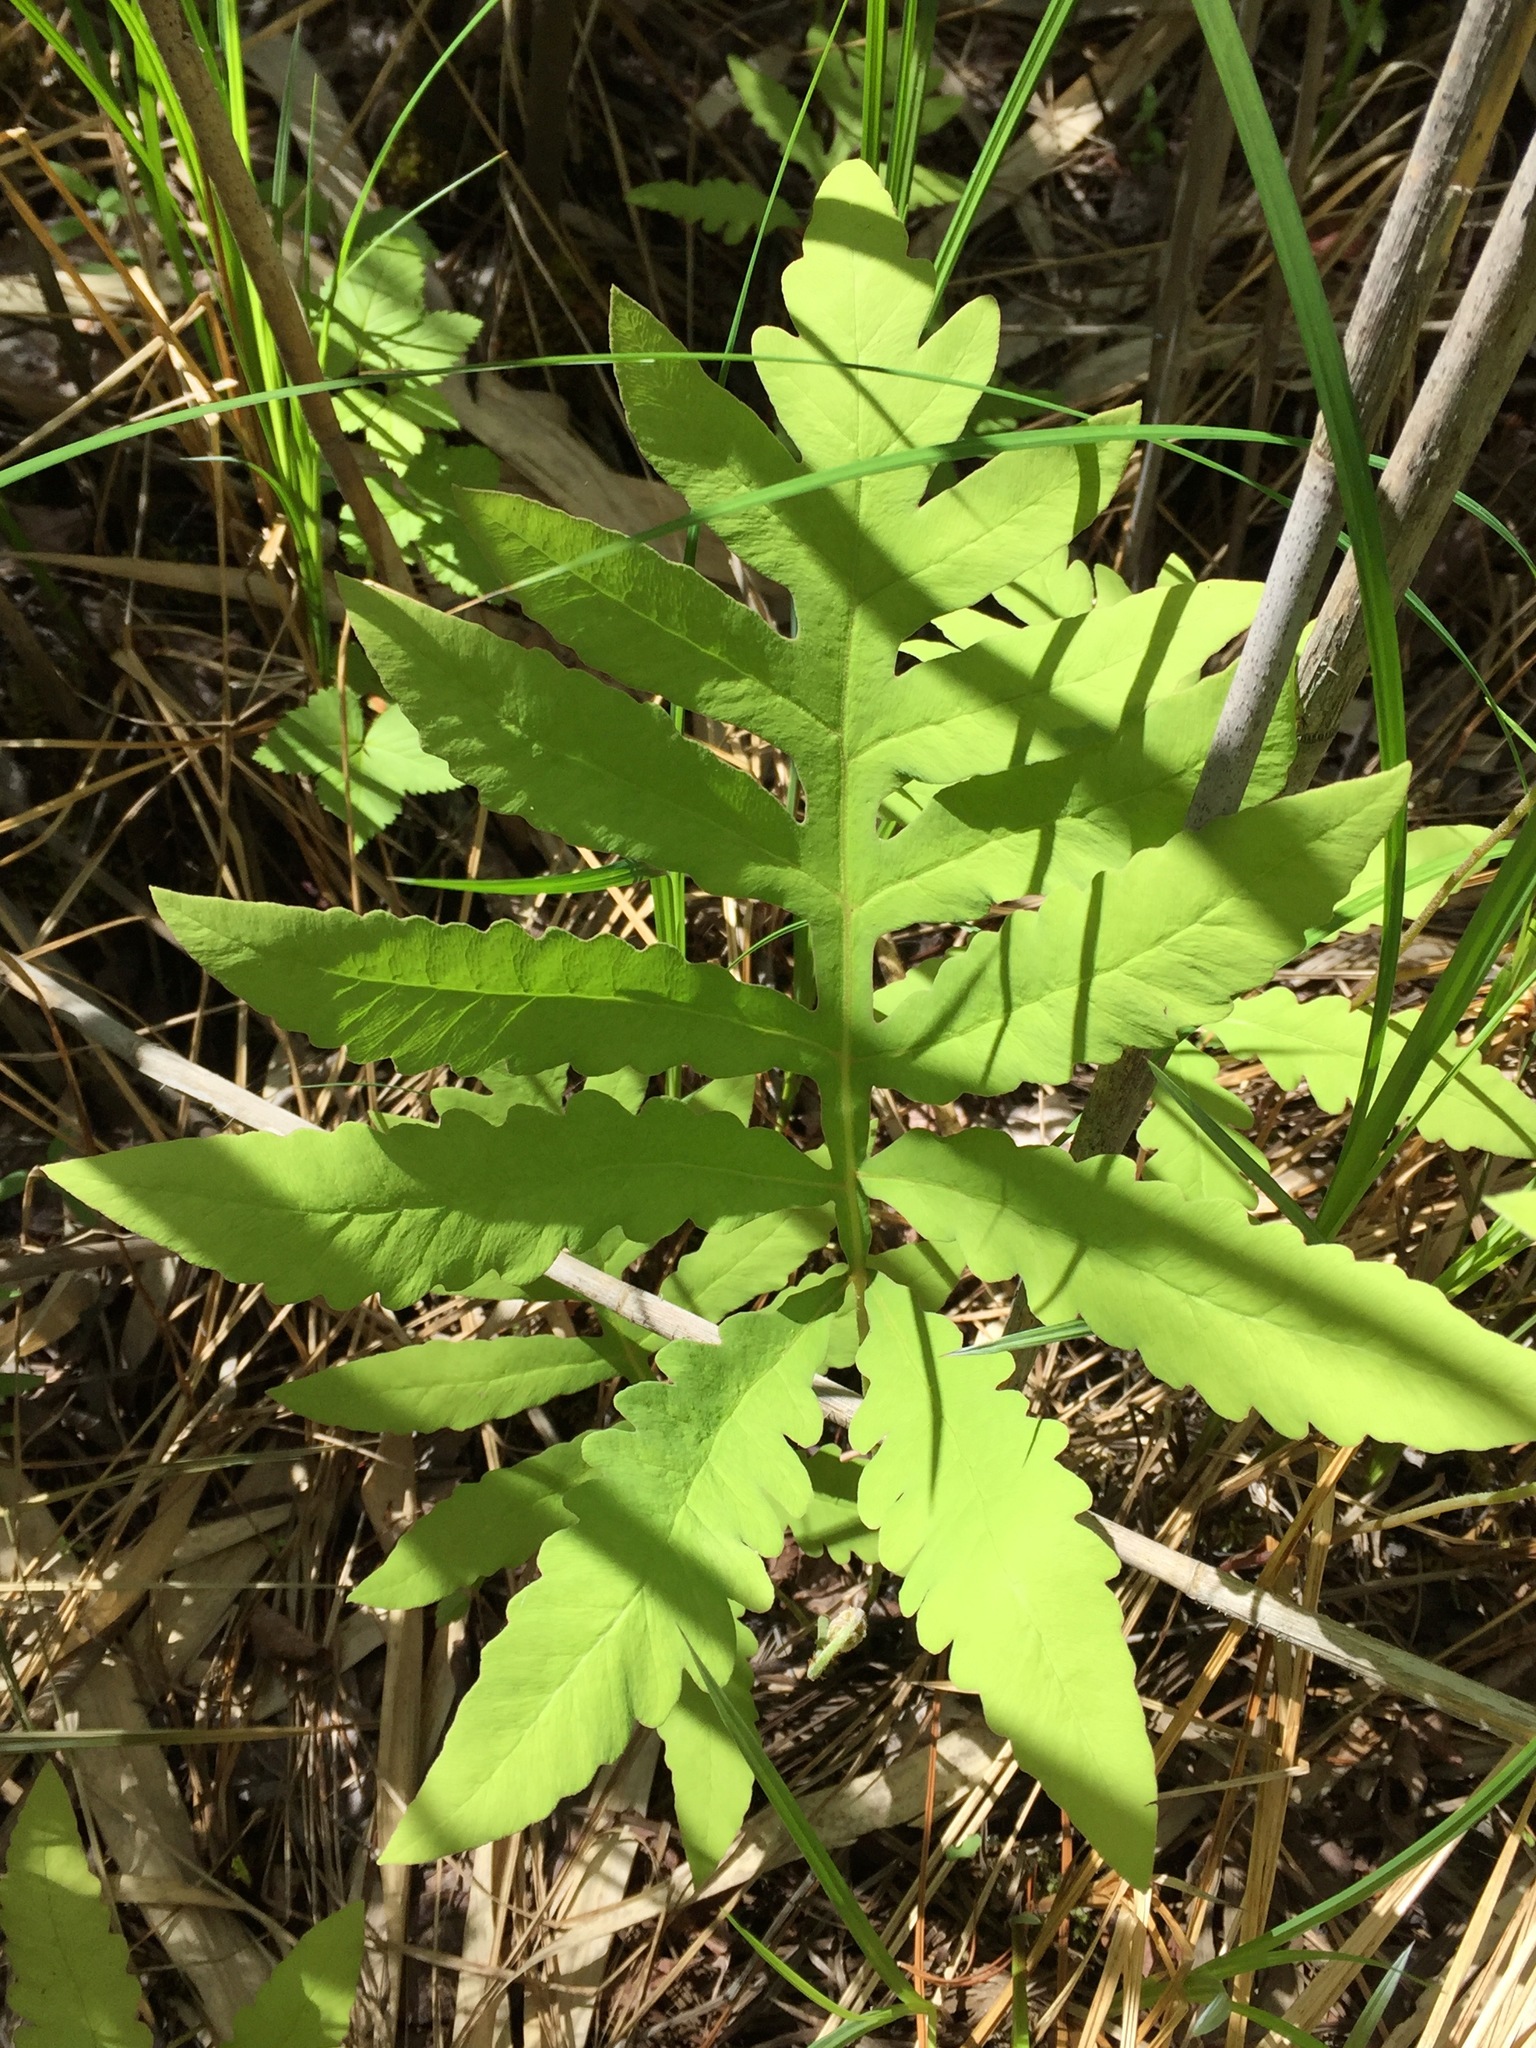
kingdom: Plantae
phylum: Tracheophyta
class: Polypodiopsida
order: Polypodiales
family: Onocleaceae
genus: Onoclea
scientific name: Onoclea sensibilis
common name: Sensitive fern
